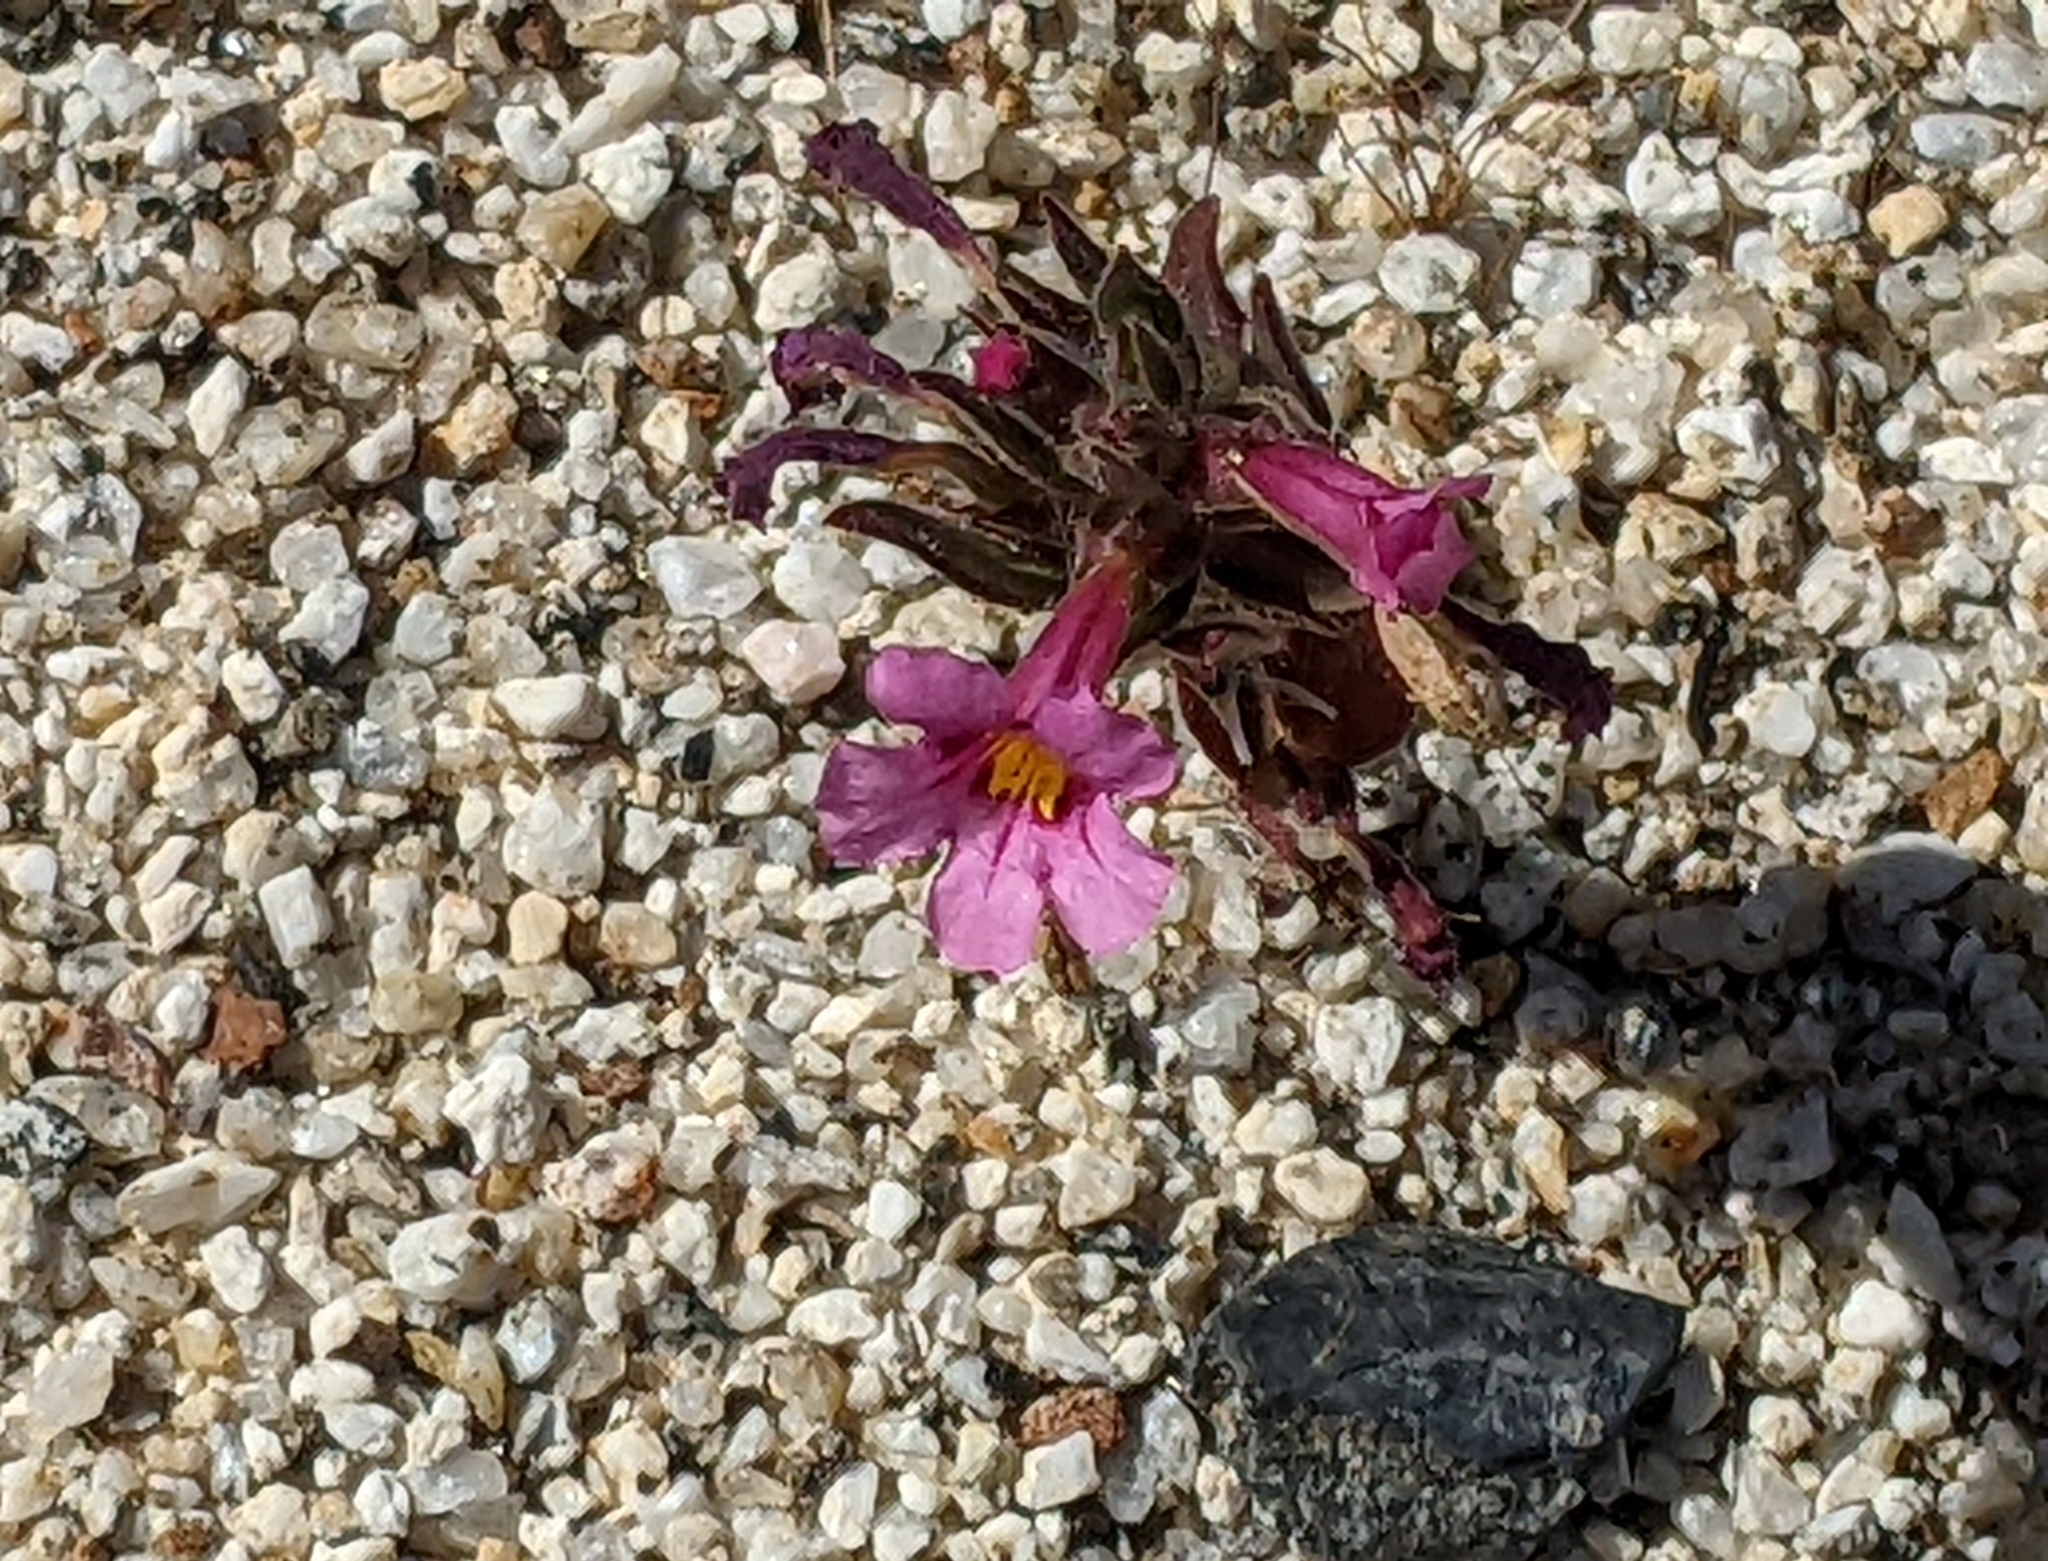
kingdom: Plantae
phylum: Tracheophyta
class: Magnoliopsida
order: Lamiales
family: Phrymaceae
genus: Diplacus
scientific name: Diplacus bigelovii
